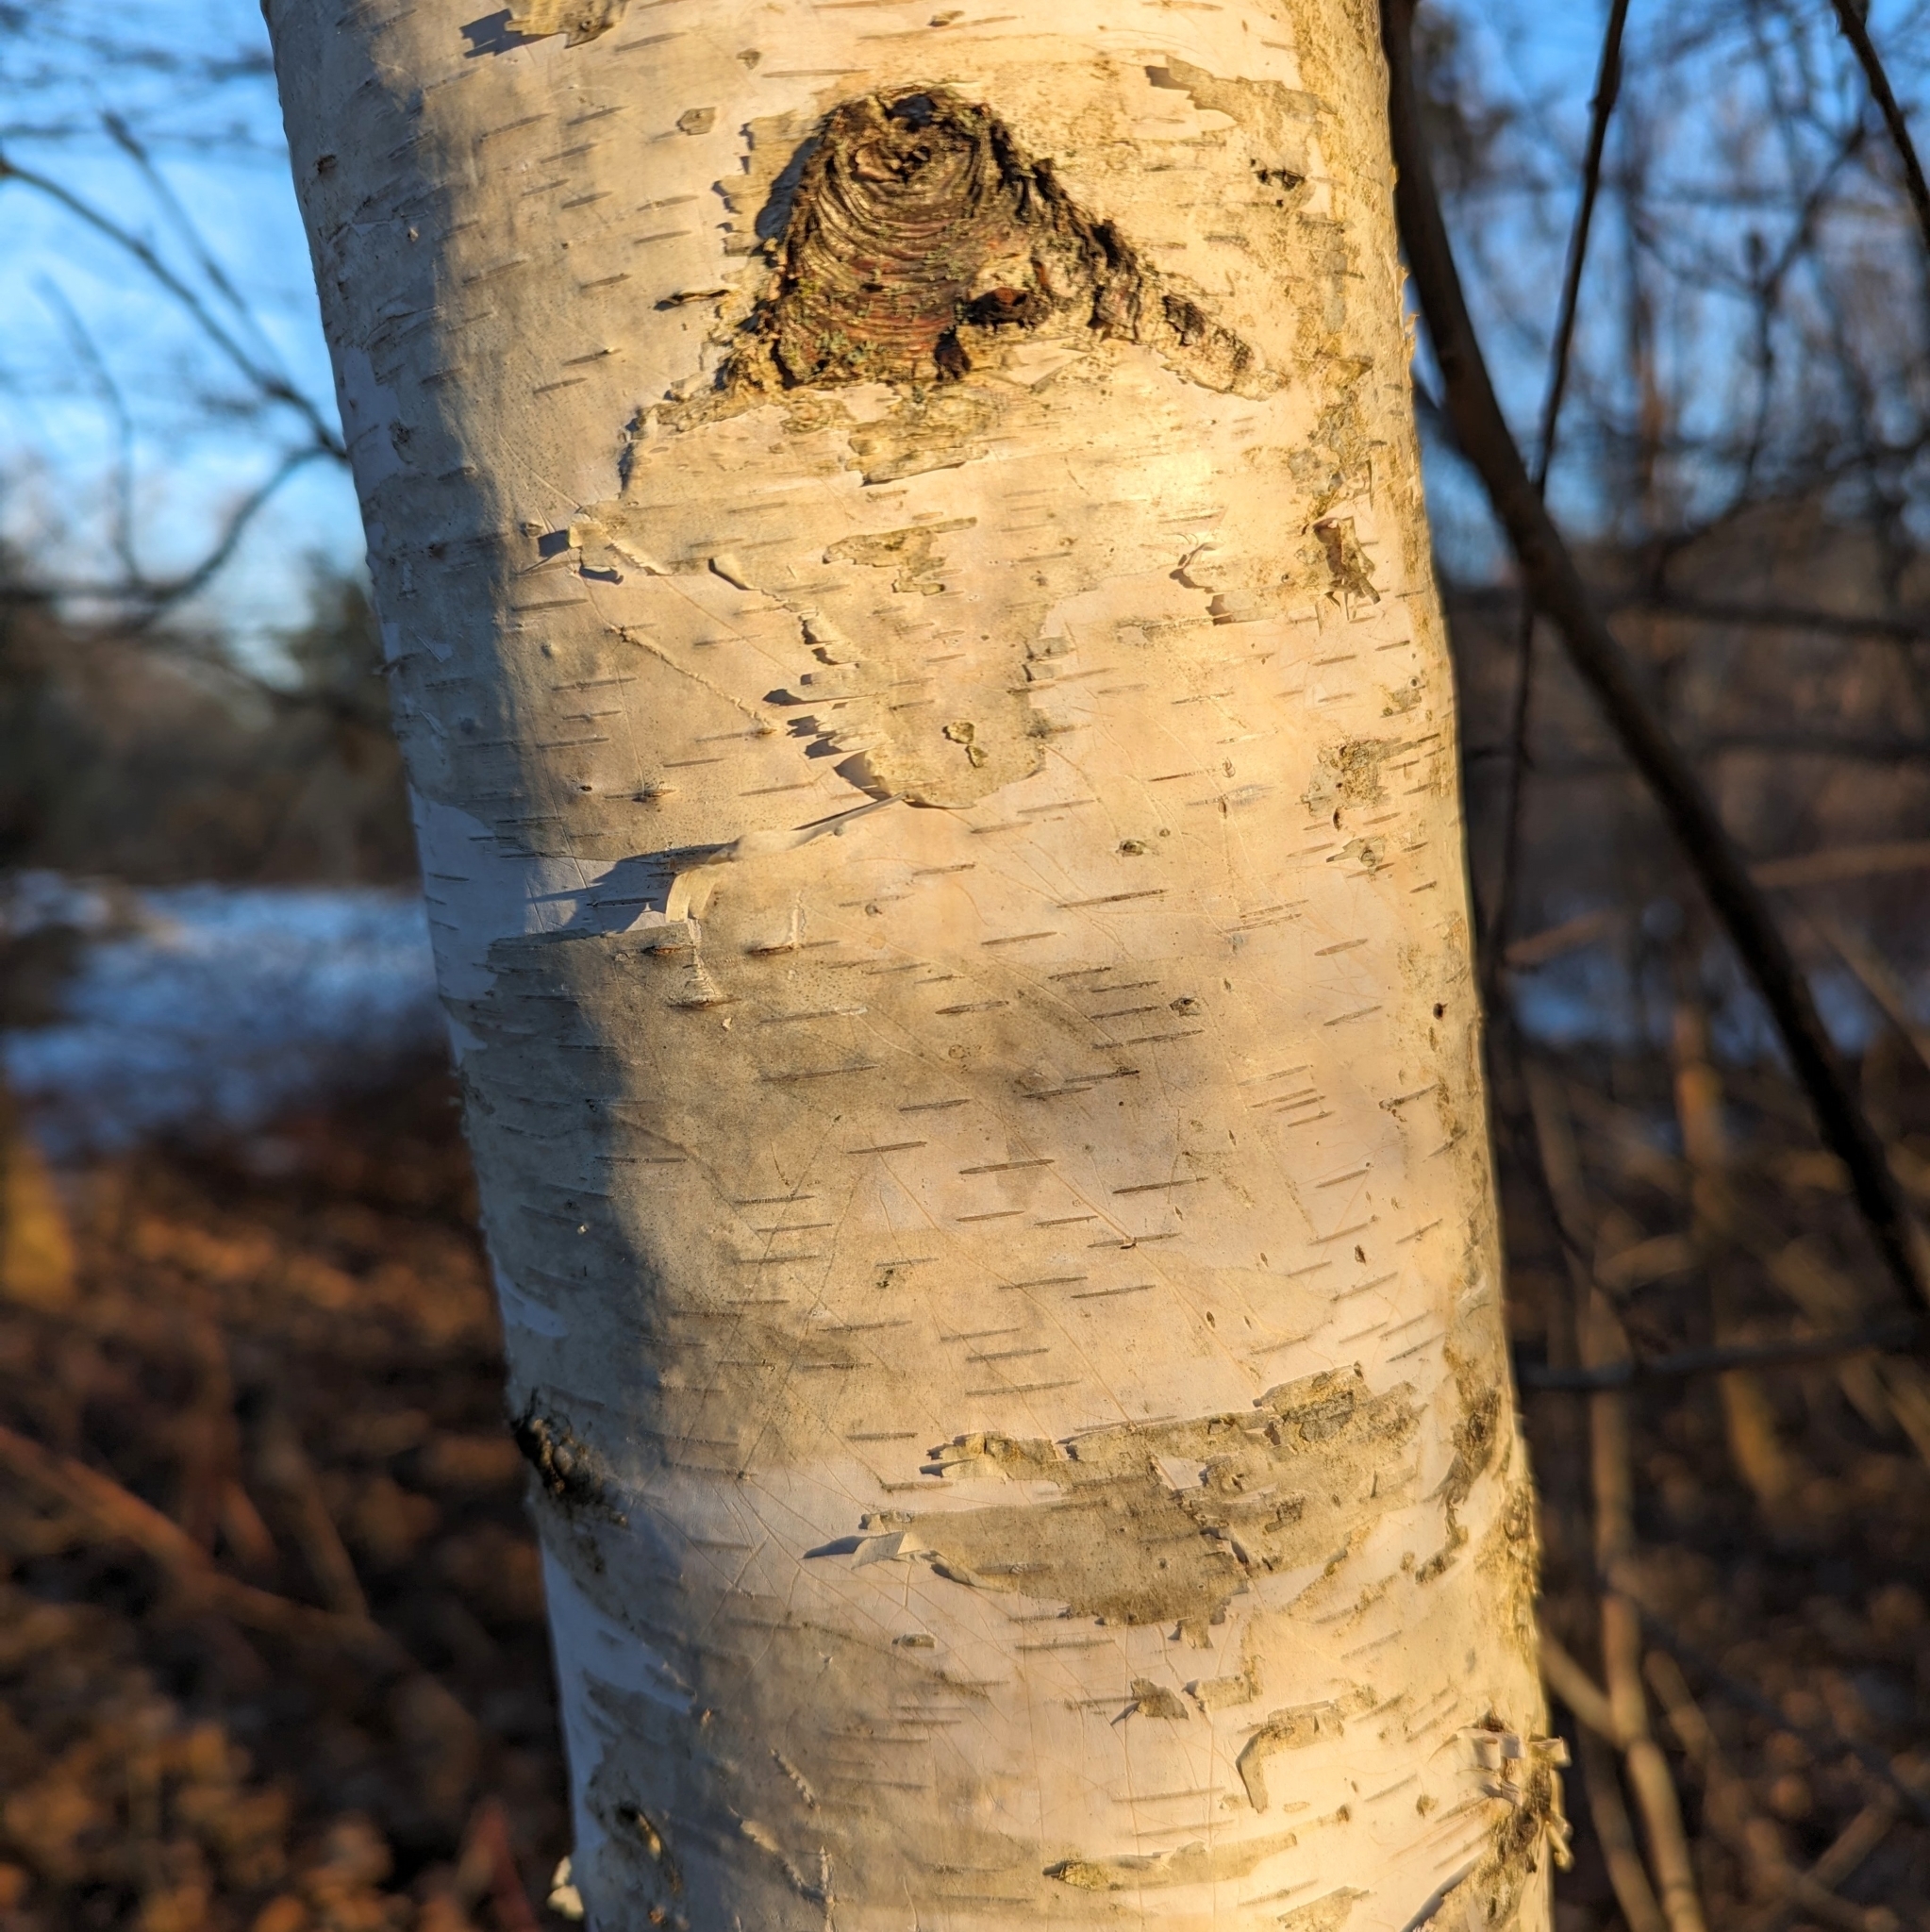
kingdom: Plantae
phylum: Tracheophyta
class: Magnoliopsida
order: Fagales
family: Betulaceae
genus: Betula
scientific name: Betula papyrifera
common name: Paper birch
